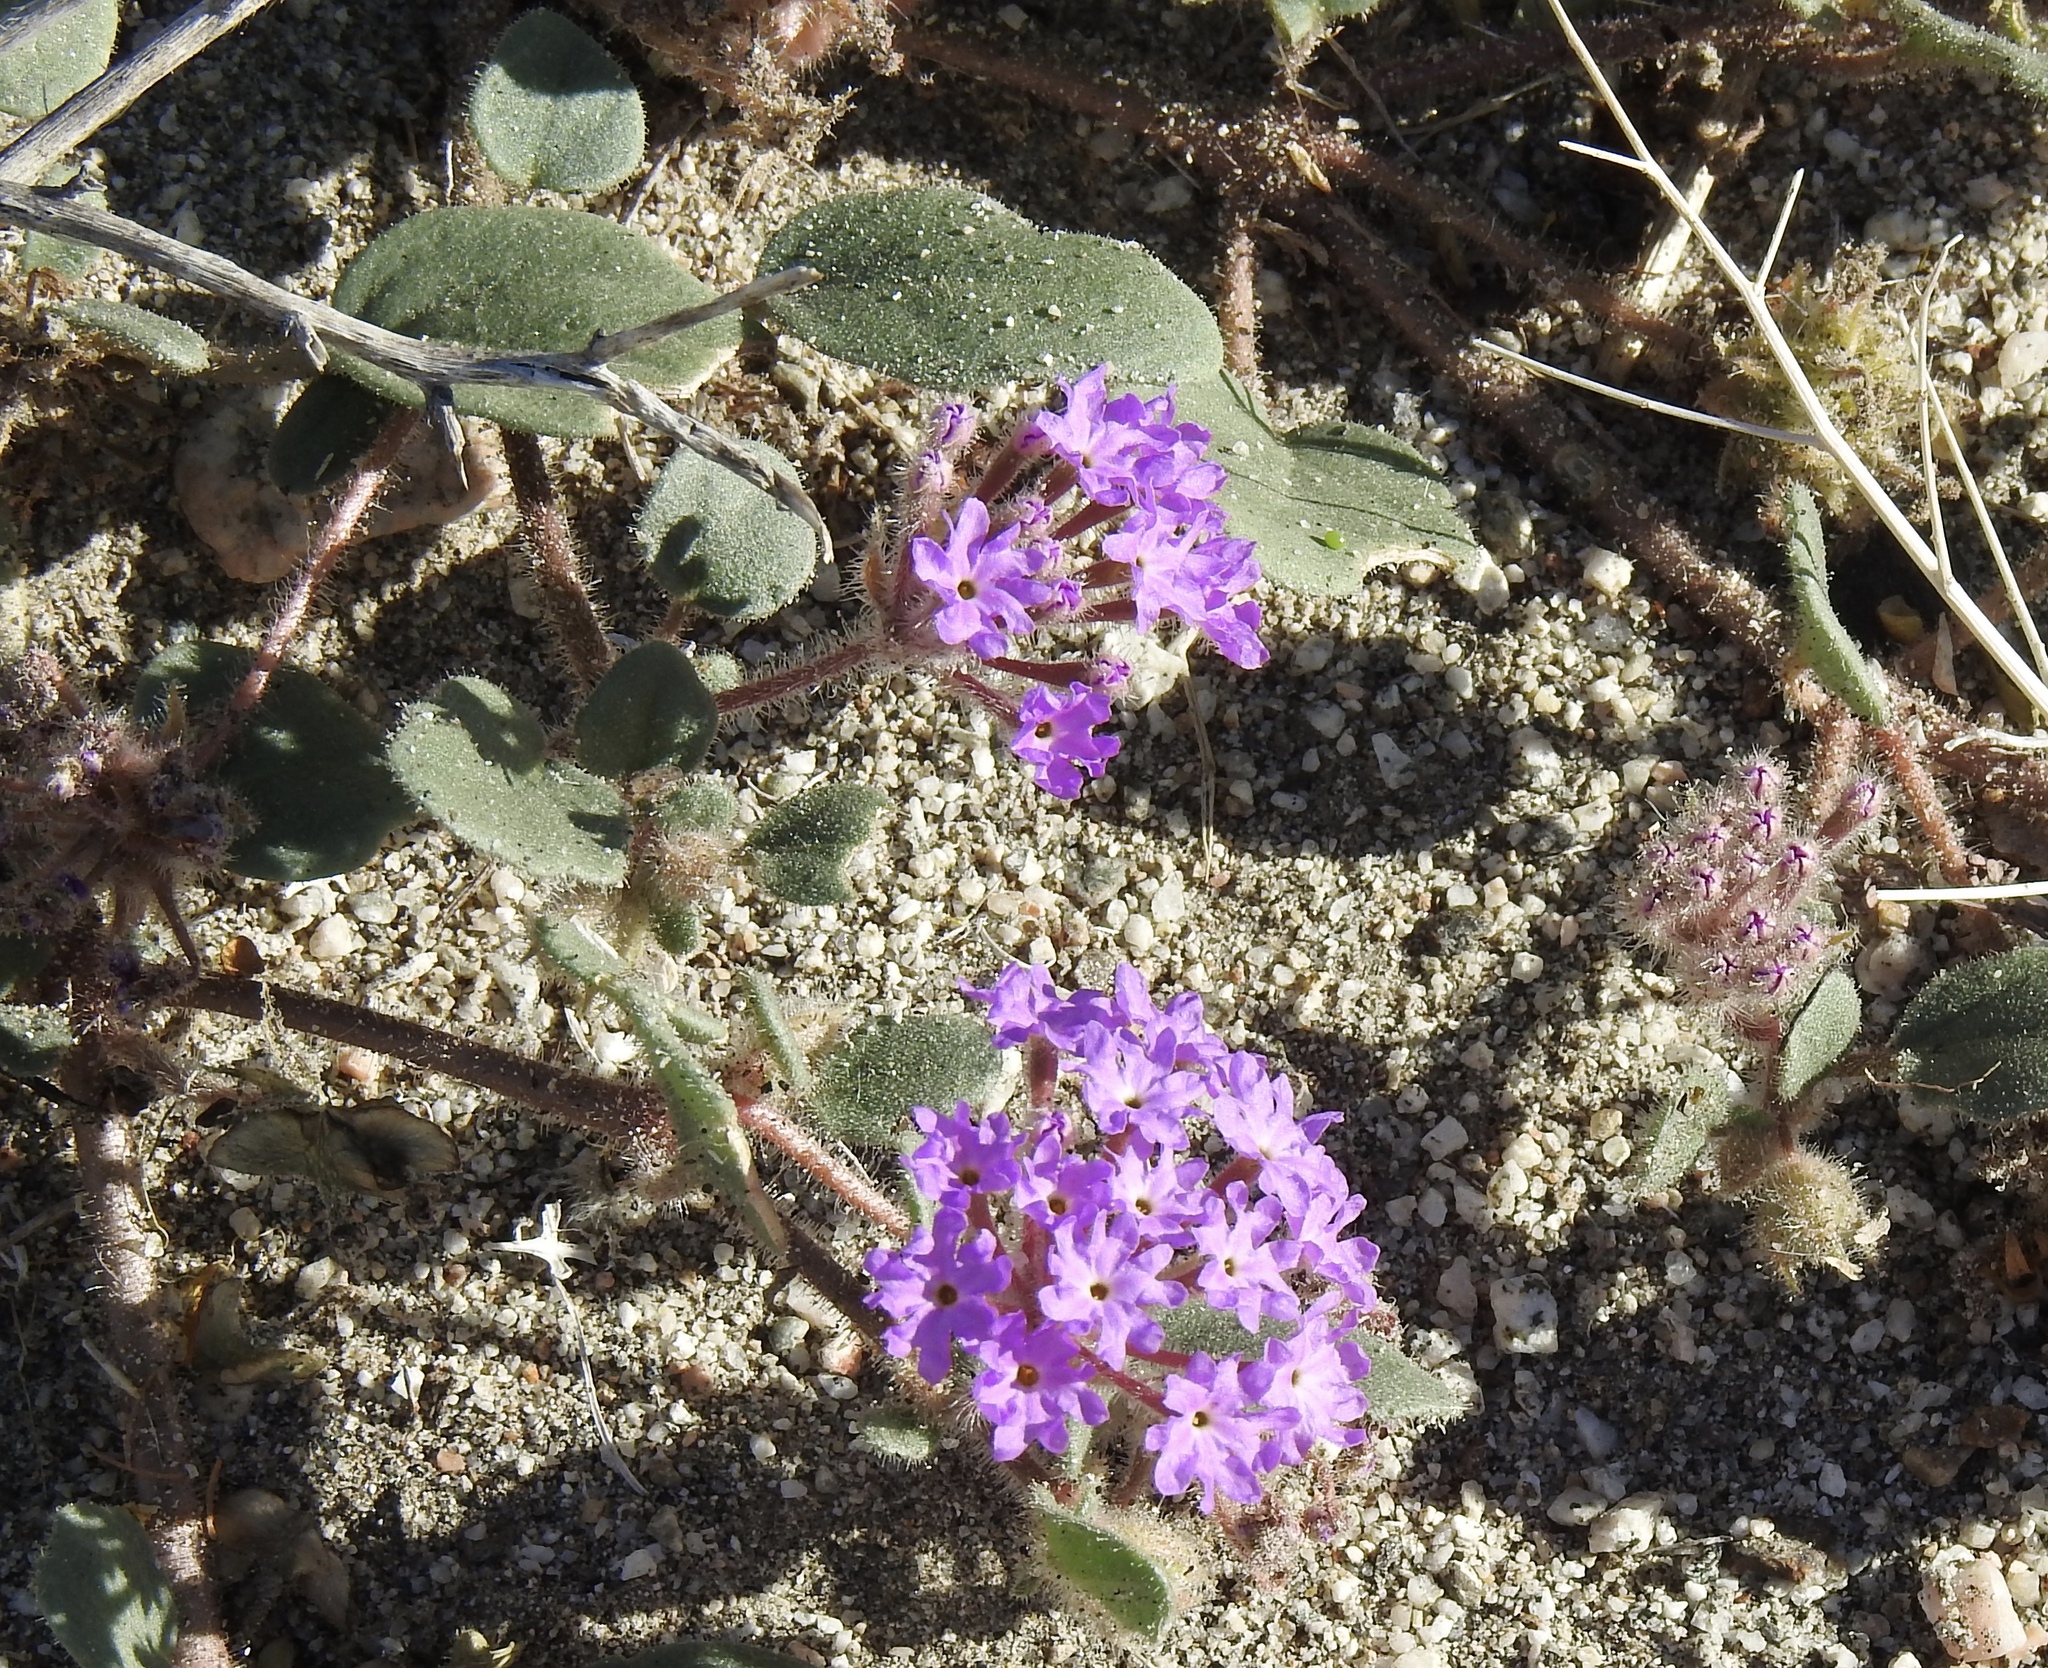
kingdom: Plantae
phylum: Tracheophyta
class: Magnoliopsida
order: Caryophyllales
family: Nyctaginaceae
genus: Abronia
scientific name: Abronia villosa
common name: Desert sand-verbena
